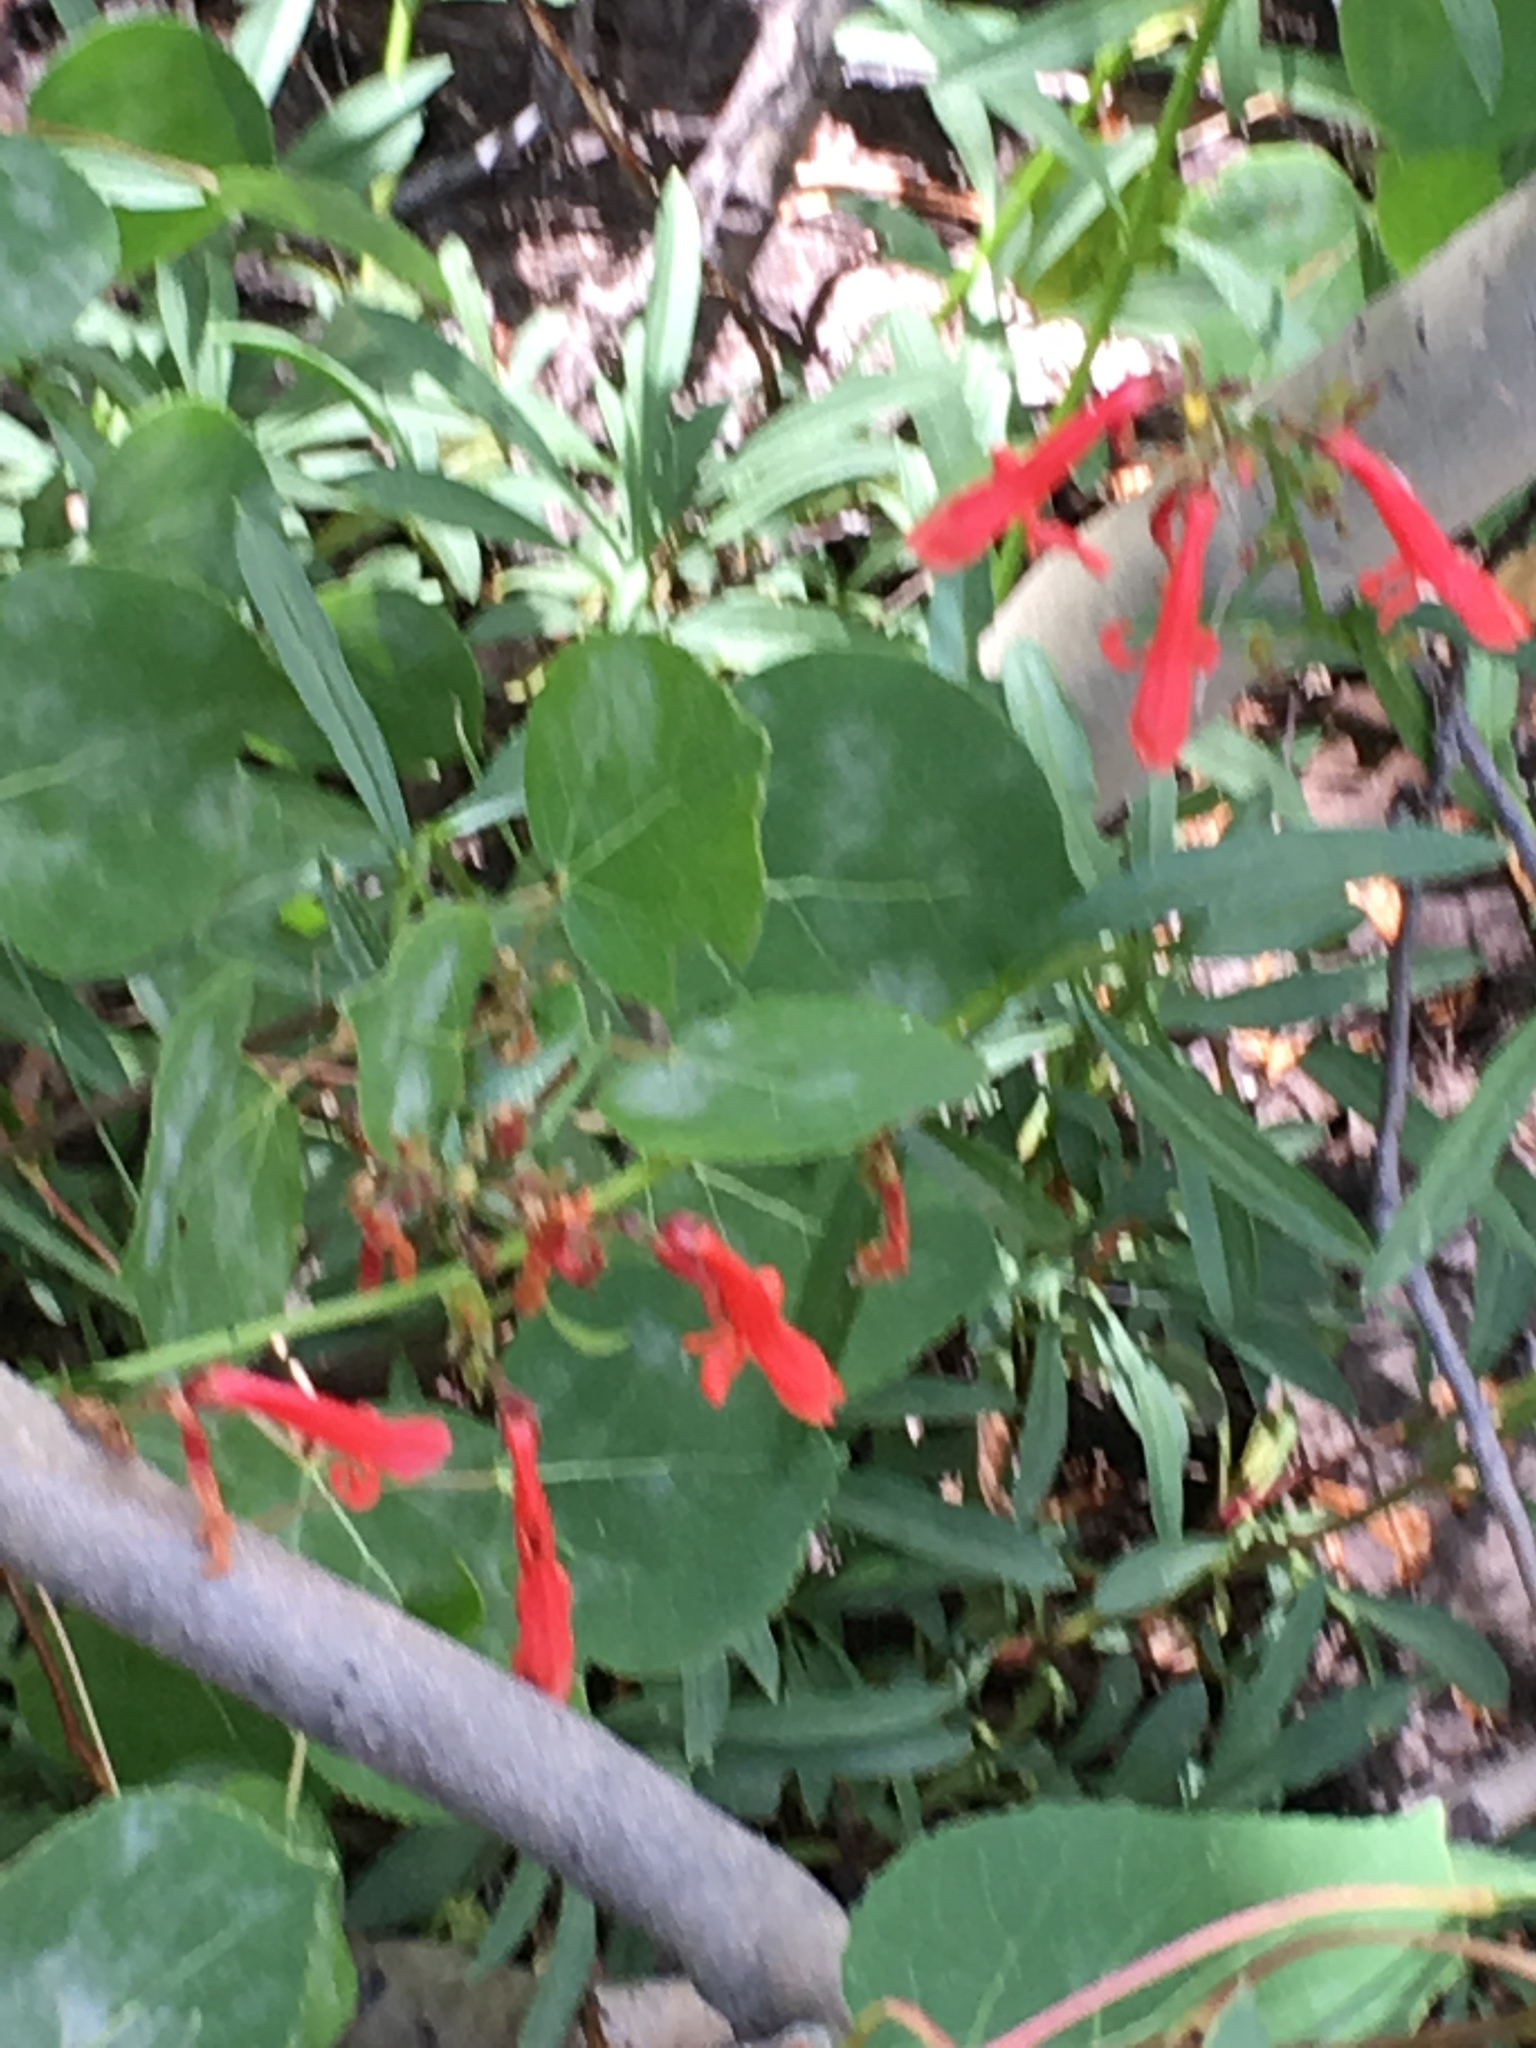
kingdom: Plantae
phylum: Tracheophyta
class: Magnoliopsida
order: Lamiales
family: Plantaginaceae
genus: Penstemon
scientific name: Penstemon rostriflorus
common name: Bridges's penstemon
